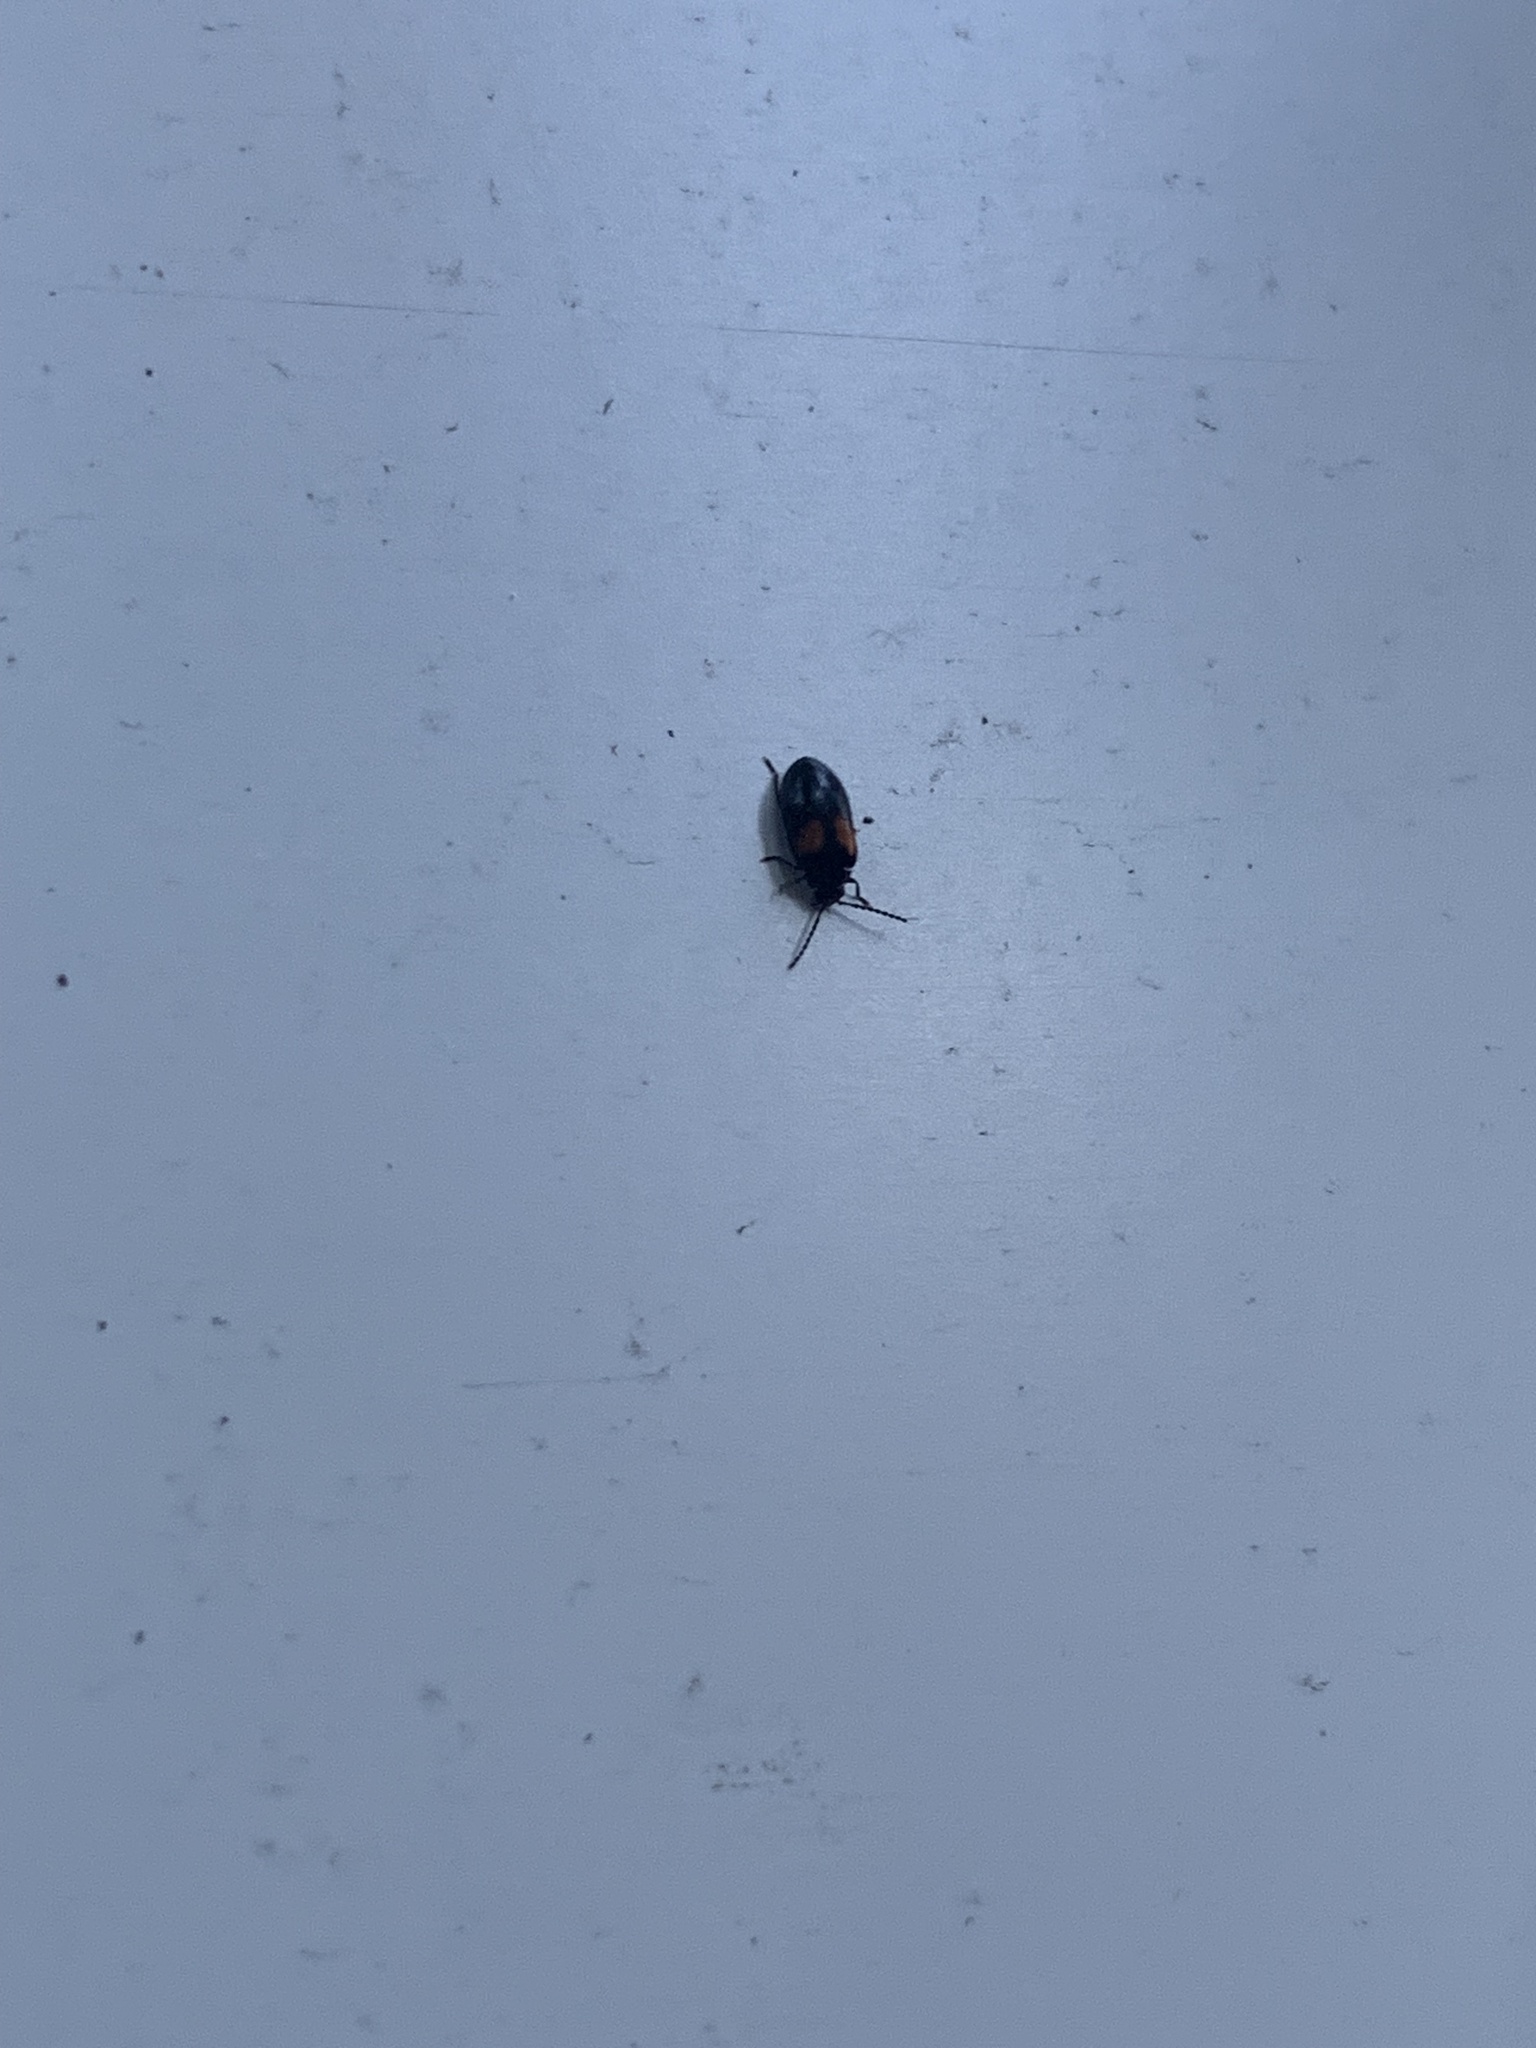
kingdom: Animalia
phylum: Arthropoda
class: Insecta
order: Coleoptera
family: Scirtidae
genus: Cyphon
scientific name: Cyphon concinnus
